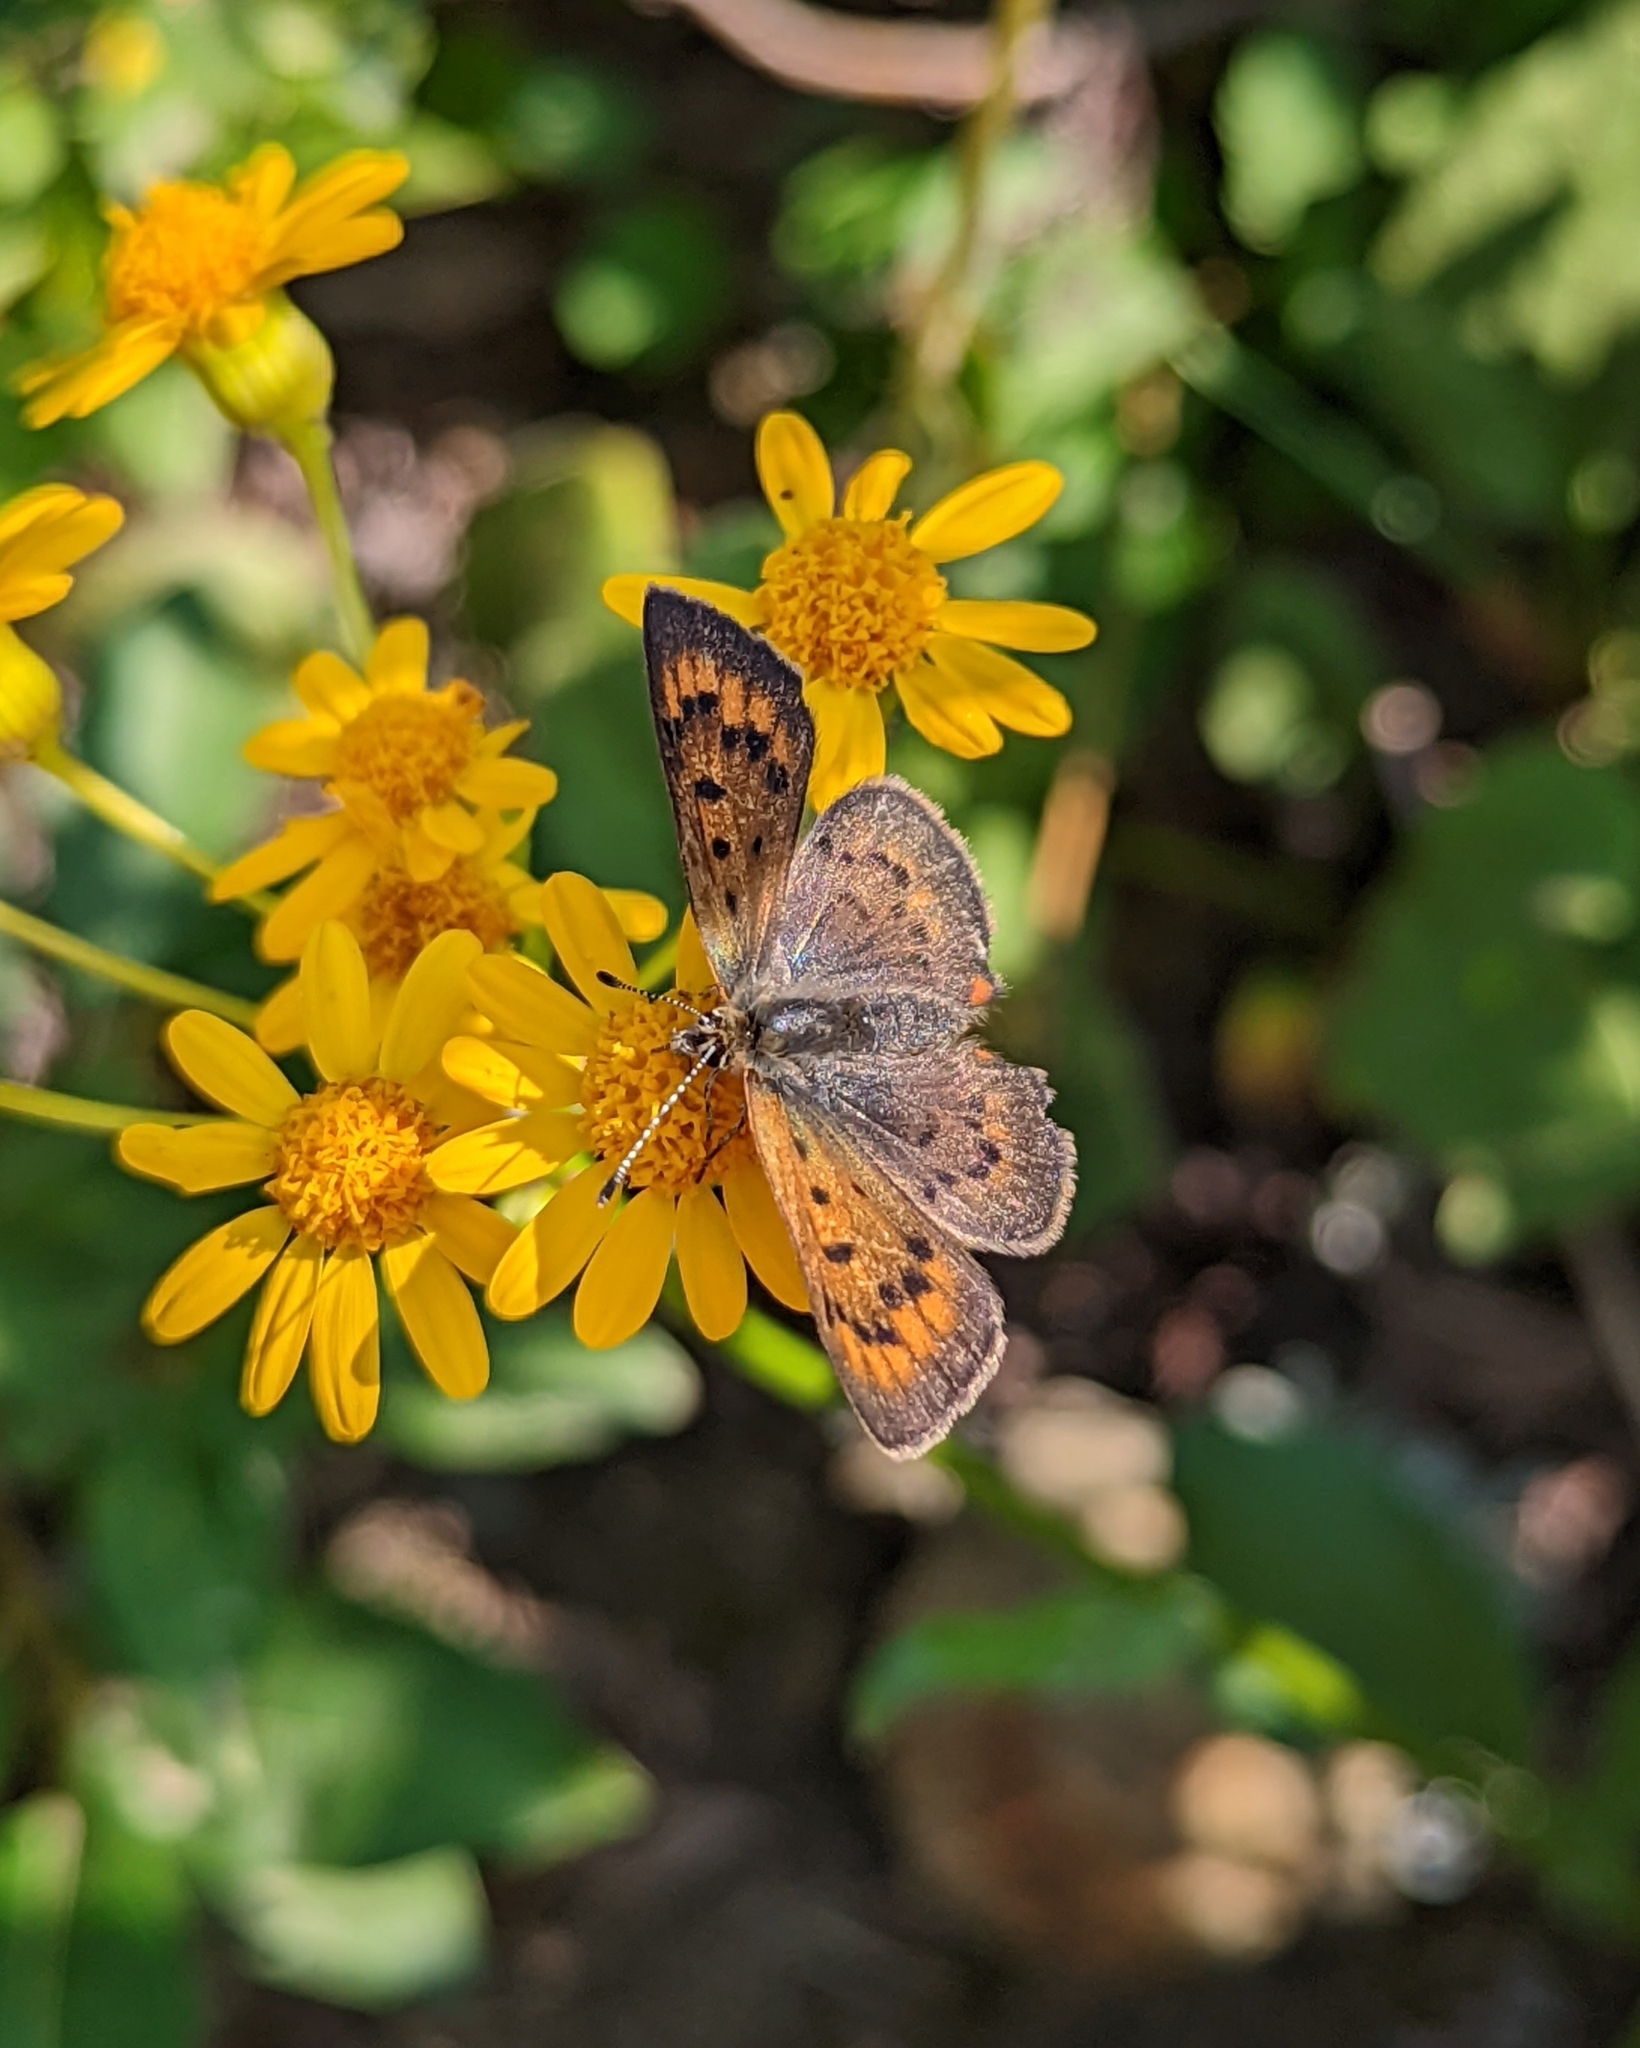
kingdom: Animalia
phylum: Arthropoda
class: Insecta
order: Lepidoptera
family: Lycaenidae
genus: Tharsalea
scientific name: Tharsalea dorcas
